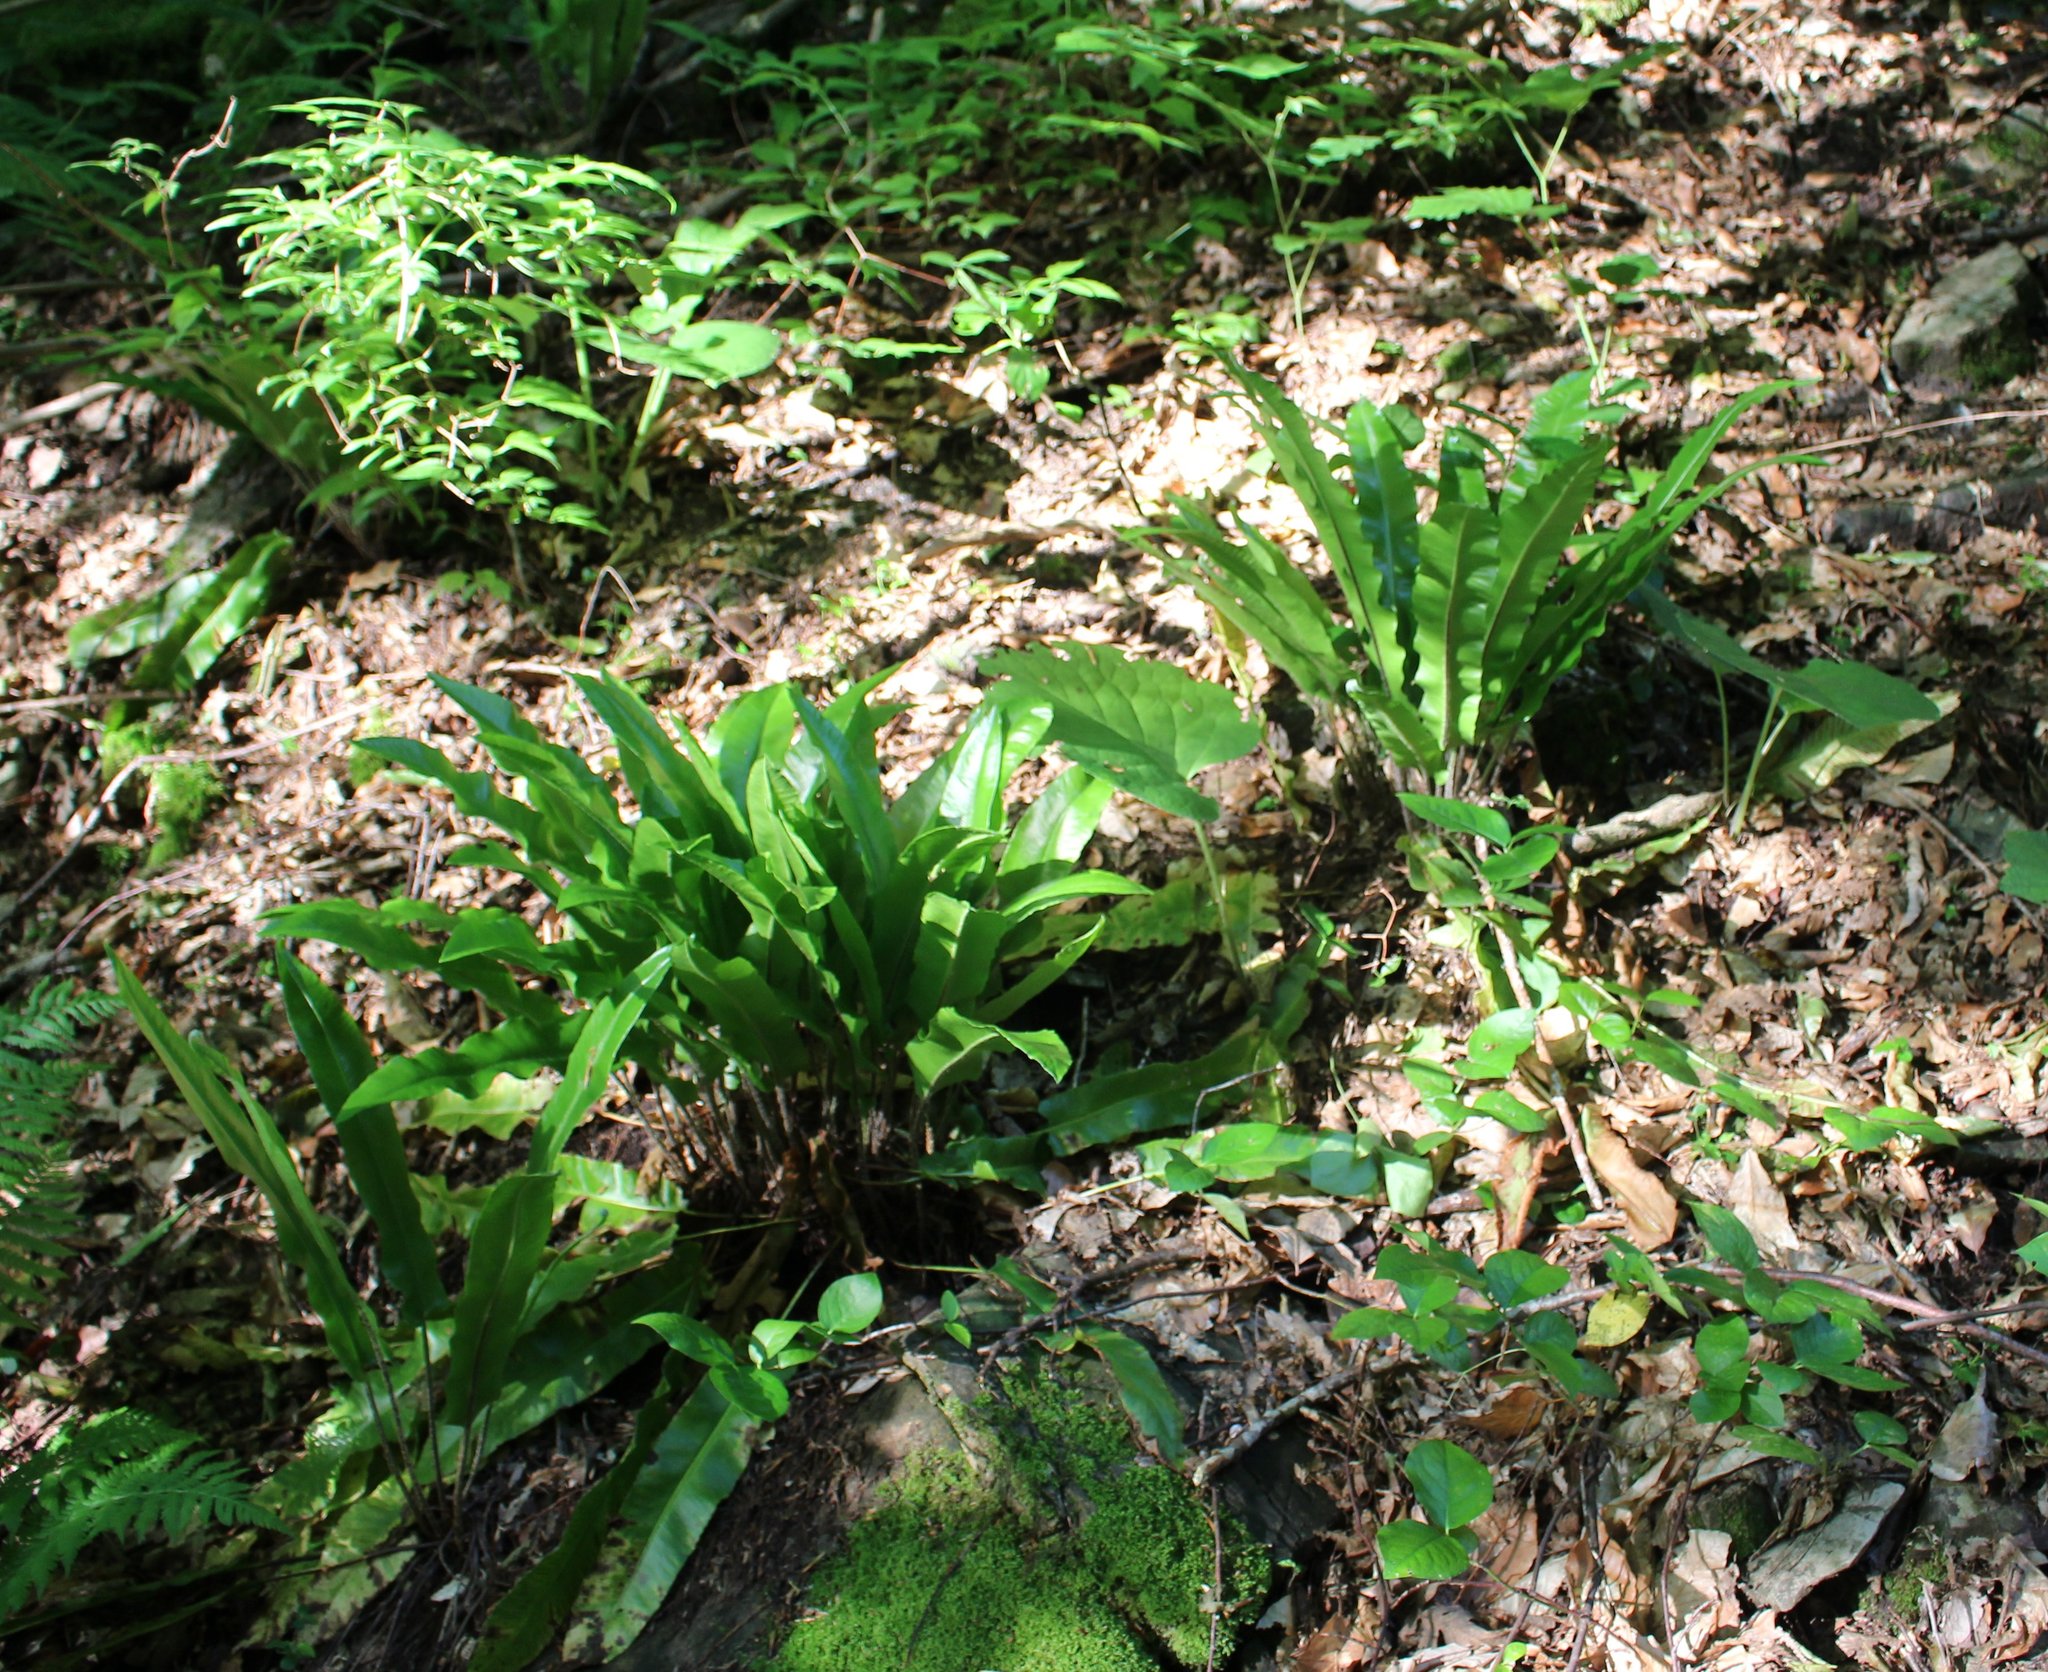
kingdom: Plantae
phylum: Tracheophyta
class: Polypodiopsida
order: Polypodiales
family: Aspleniaceae
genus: Asplenium
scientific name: Asplenium scolopendrium
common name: Hart's-tongue fern
